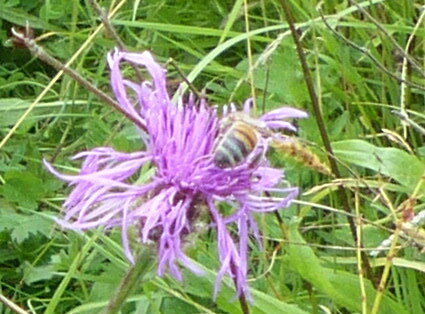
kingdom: Animalia
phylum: Arthropoda
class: Insecta
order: Hymenoptera
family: Apidae
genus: Apis
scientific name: Apis mellifera
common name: Honey bee
